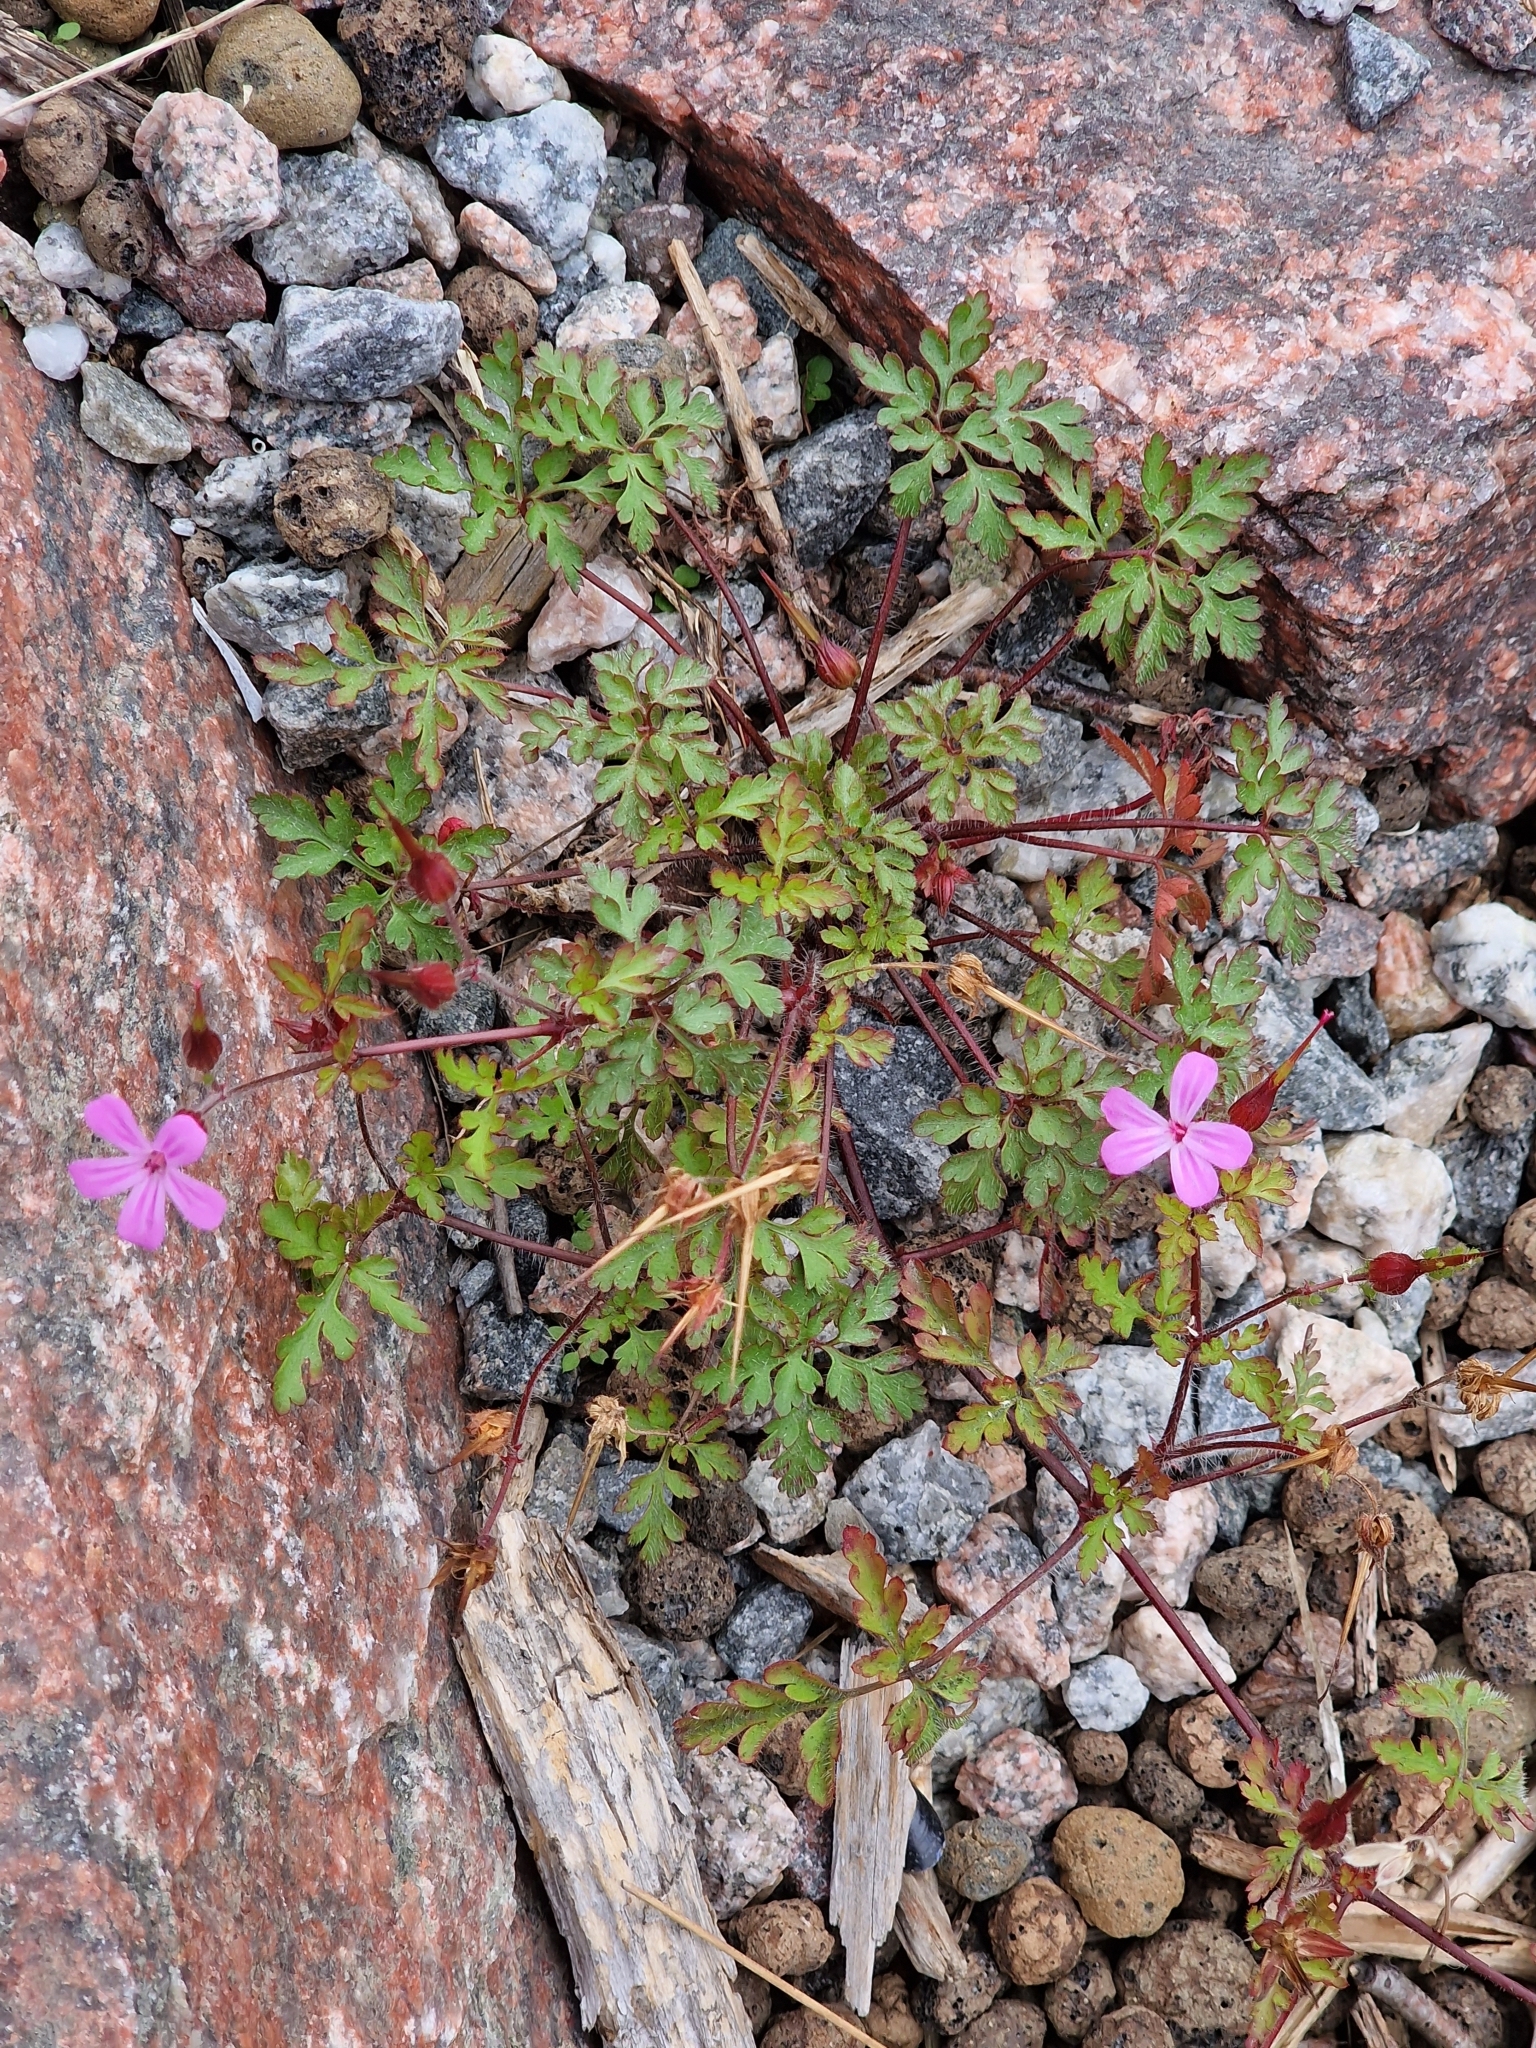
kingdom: Plantae
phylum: Tracheophyta
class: Magnoliopsida
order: Geraniales
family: Geraniaceae
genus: Geranium
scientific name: Geranium robertianum
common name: Herb-robert
